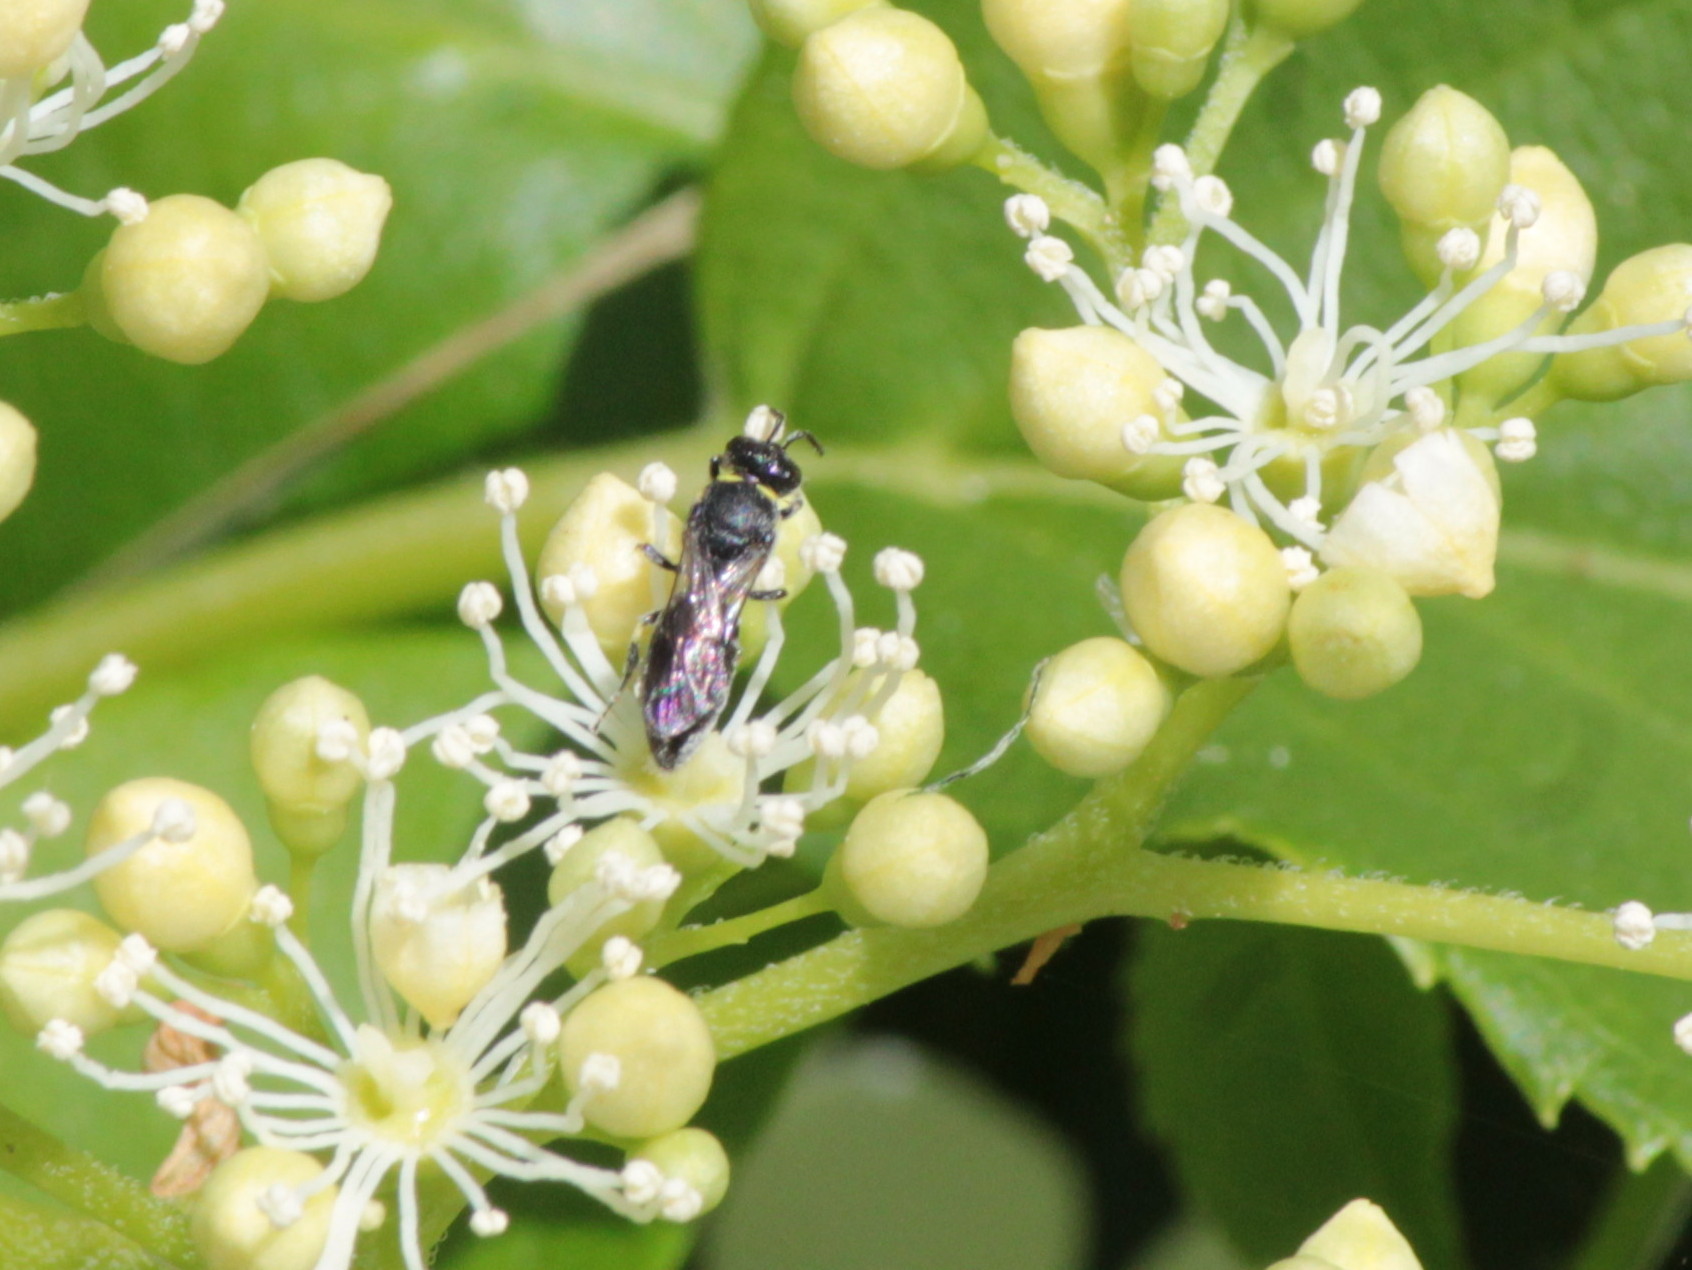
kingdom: Animalia
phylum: Arthropoda
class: Insecta
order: Hymenoptera
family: Colletidae
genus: Hylaeus
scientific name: Hylaeus modestus
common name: Yellow-faced bee
